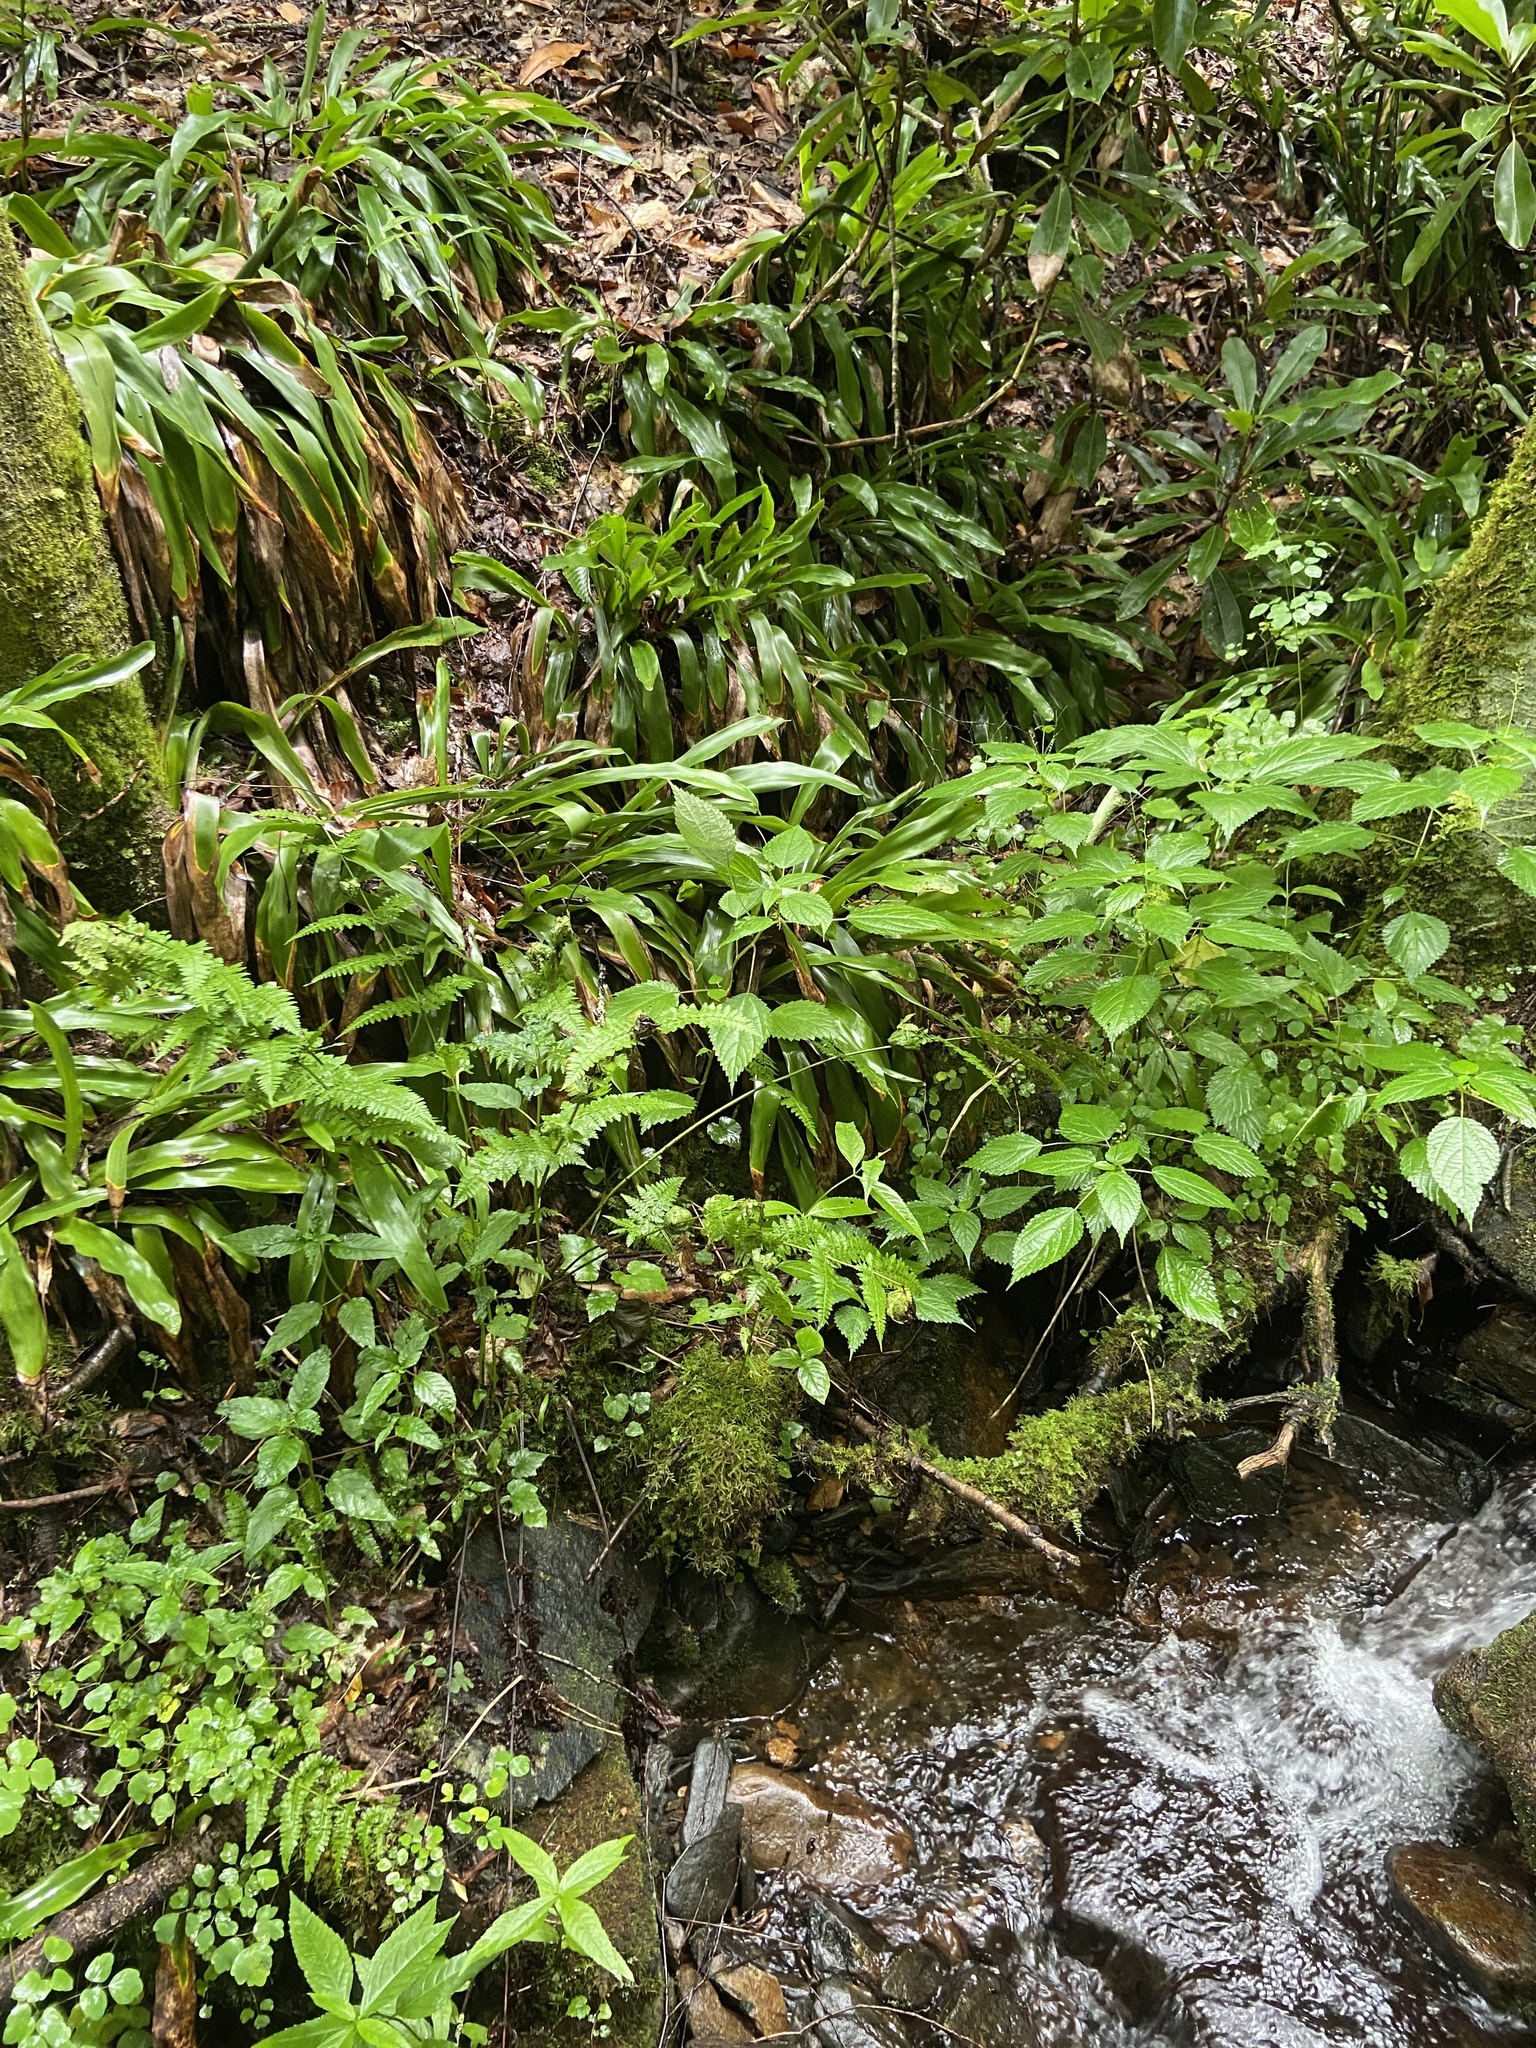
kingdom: Plantae
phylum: Tracheophyta
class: Liliopsida
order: Poales
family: Cyperaceae
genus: Carex
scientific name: Carex fraseriana
